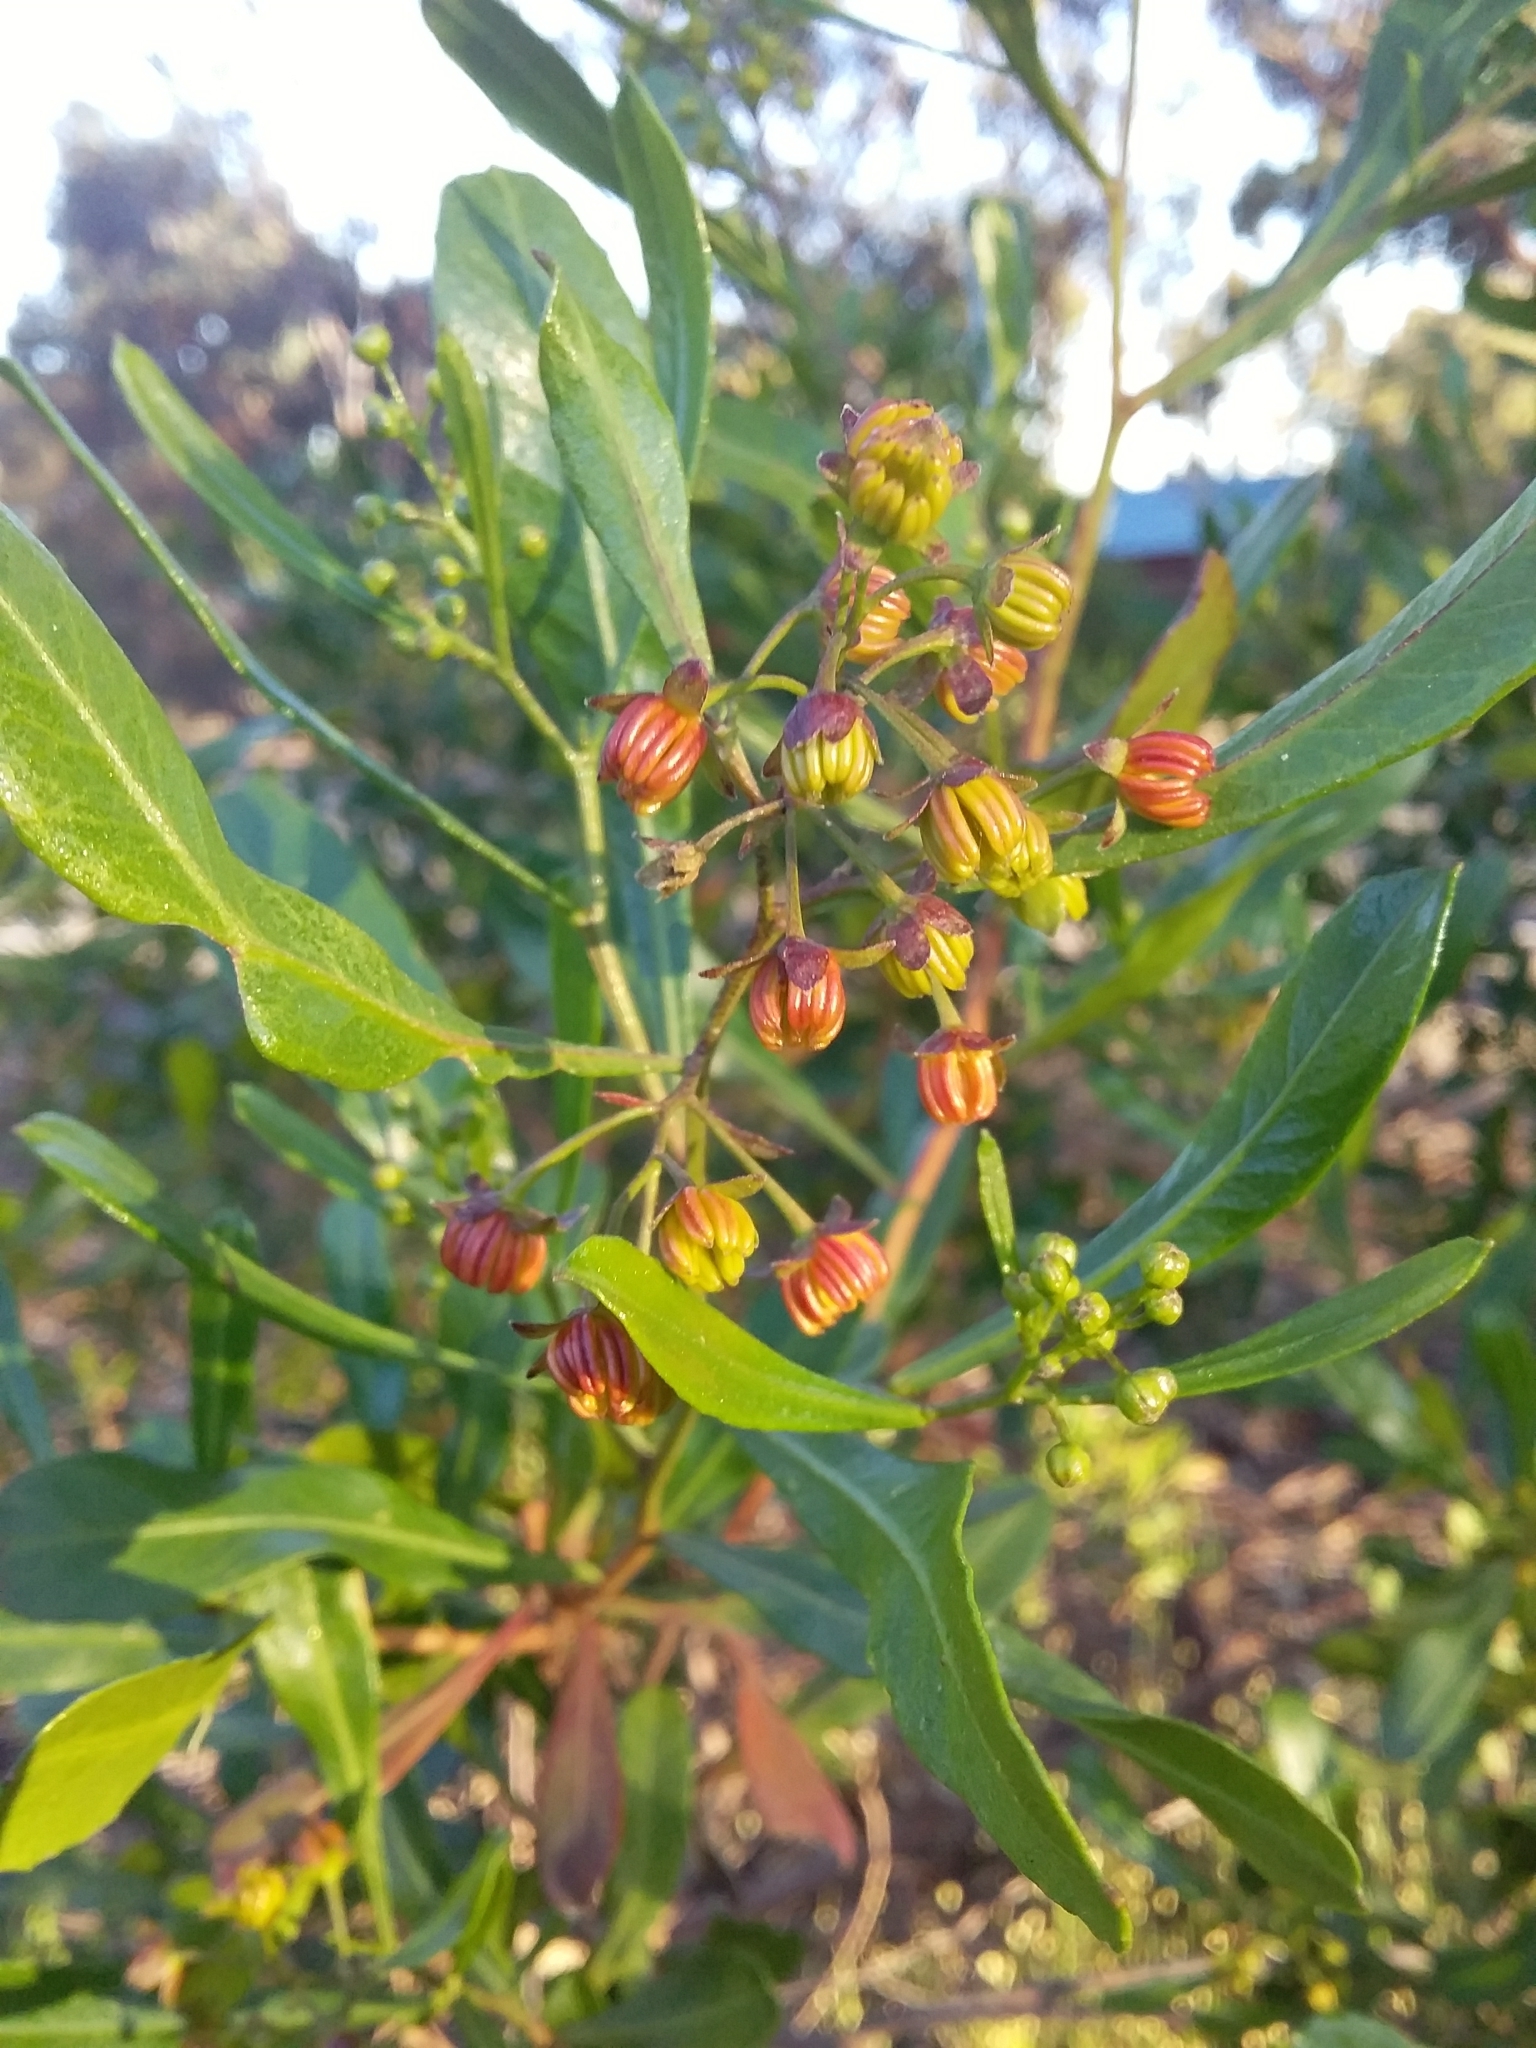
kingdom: Plantae
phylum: Tracheophyta
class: Magnoliopsida
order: Sapindales
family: Sapindaceae
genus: Dodonaea
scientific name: Dodonaea viscosa
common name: Hopbush
